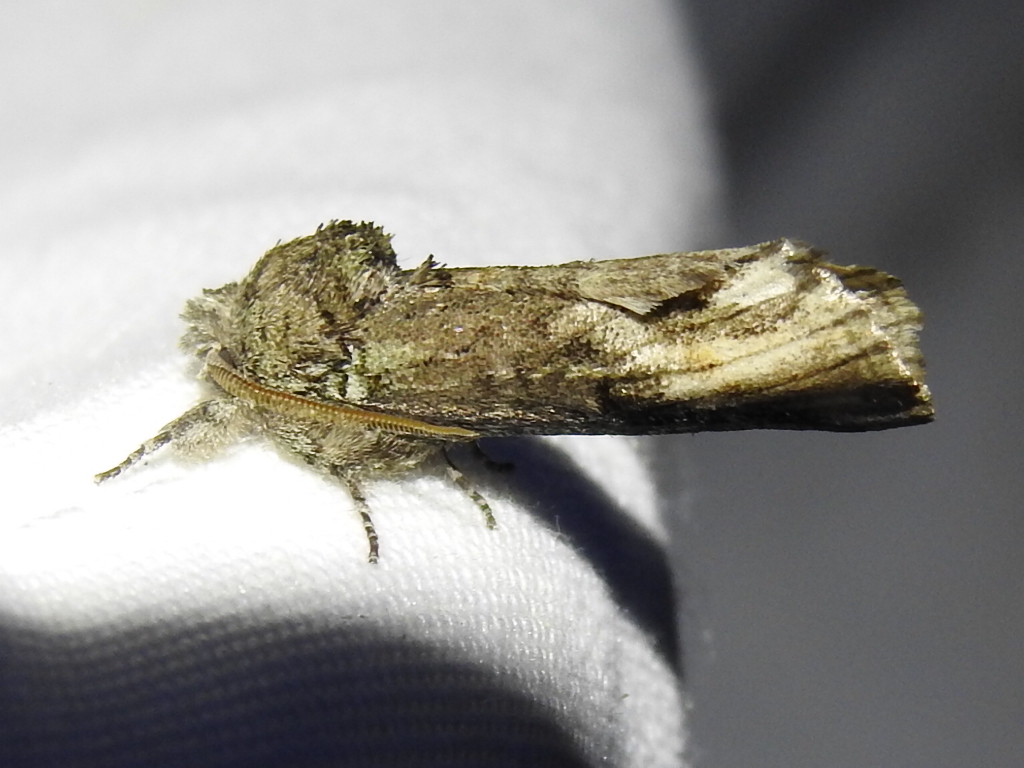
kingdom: Animalia
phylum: Arthropoda
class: Insecta
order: Lepidoptera
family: Notodontidae
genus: Schizura
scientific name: Schizura
